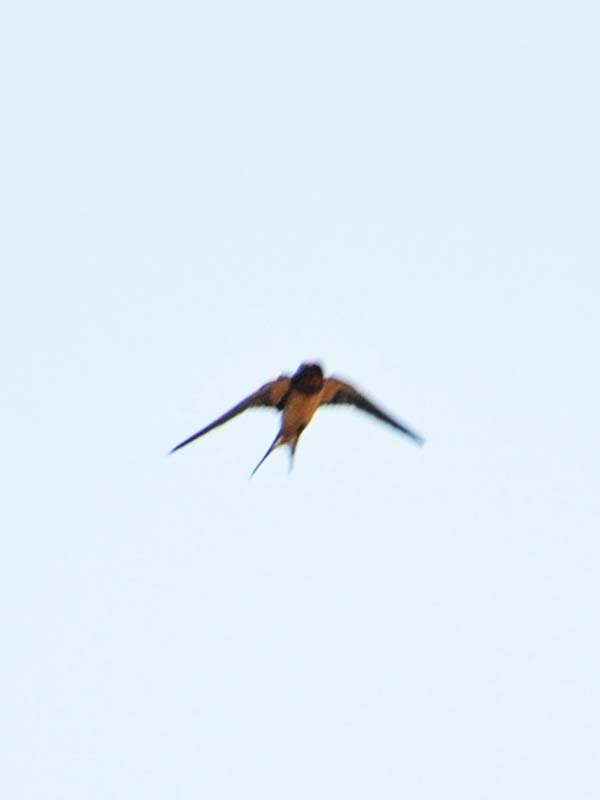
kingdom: Animalia
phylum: Chordata
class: Aves
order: Passeriformes
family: Hirundinidae
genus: Hirundo
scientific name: Hirundo rustica
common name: Barn swallow
